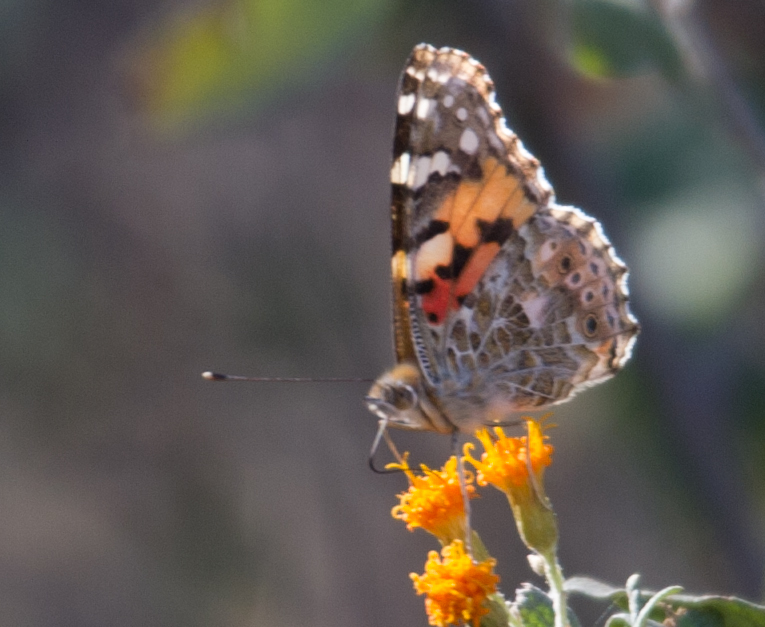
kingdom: Animalia
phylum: Arthropoda
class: Insecta
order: Lepidoptera
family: Nymphalidae
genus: Vanessa
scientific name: Vanessa cardui
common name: Painted lady
